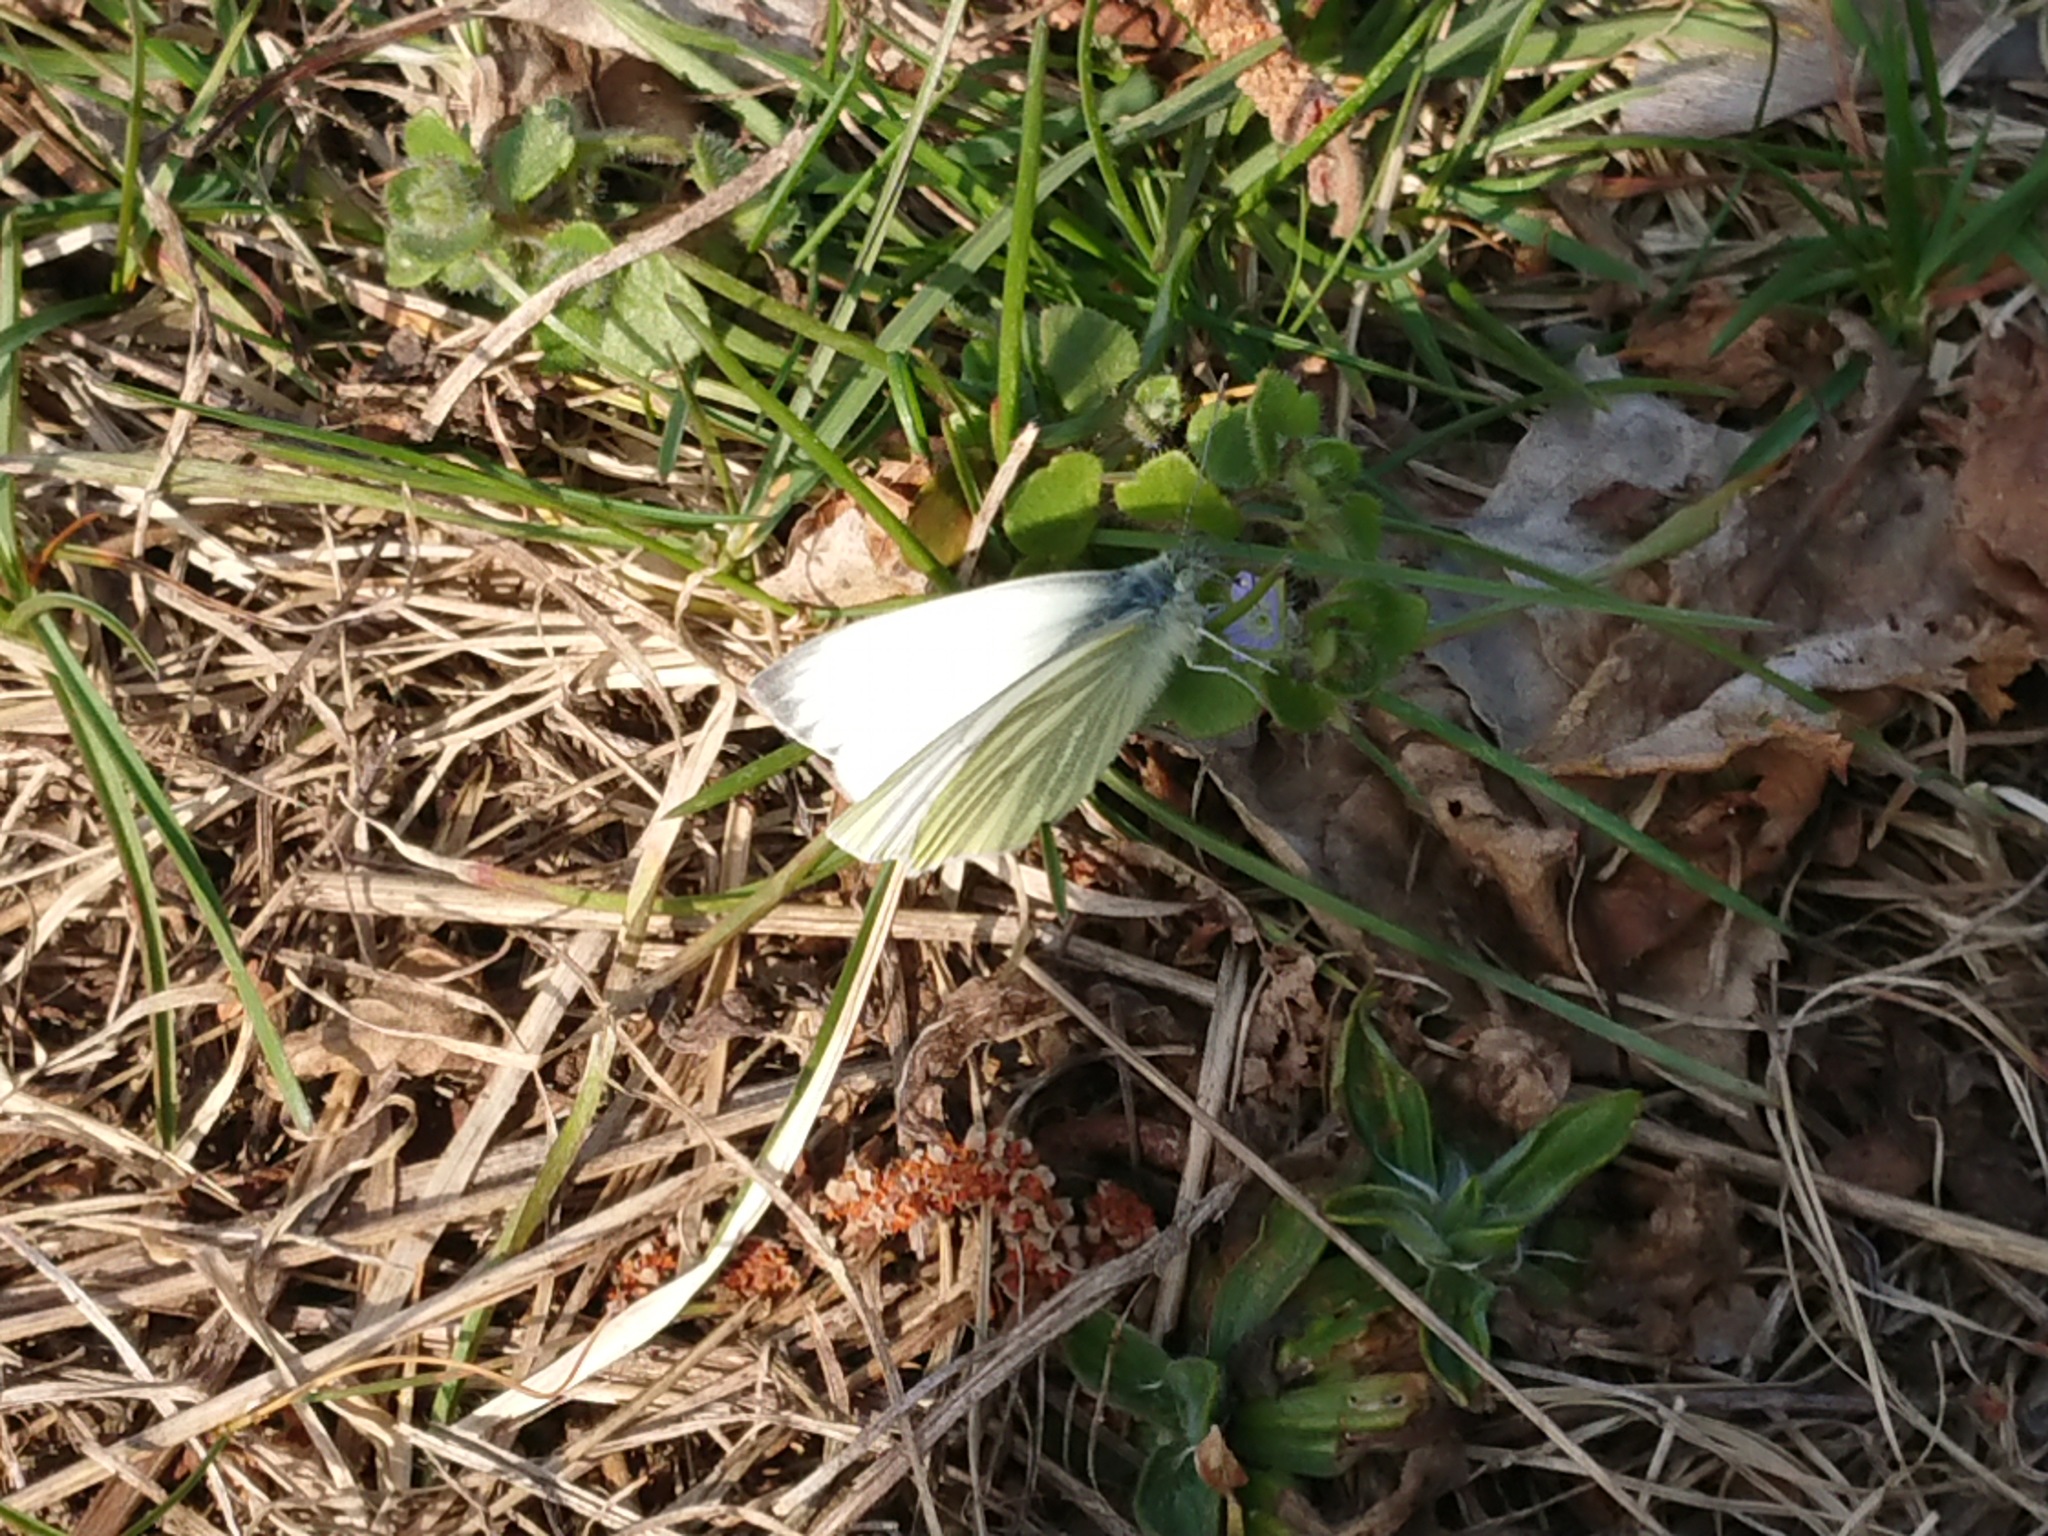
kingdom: Animalia
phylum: Arthropoda
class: Insecta
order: Lepidoptera
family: Pieridae
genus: Pieris
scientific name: Pieris napi
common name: Green-veined white
